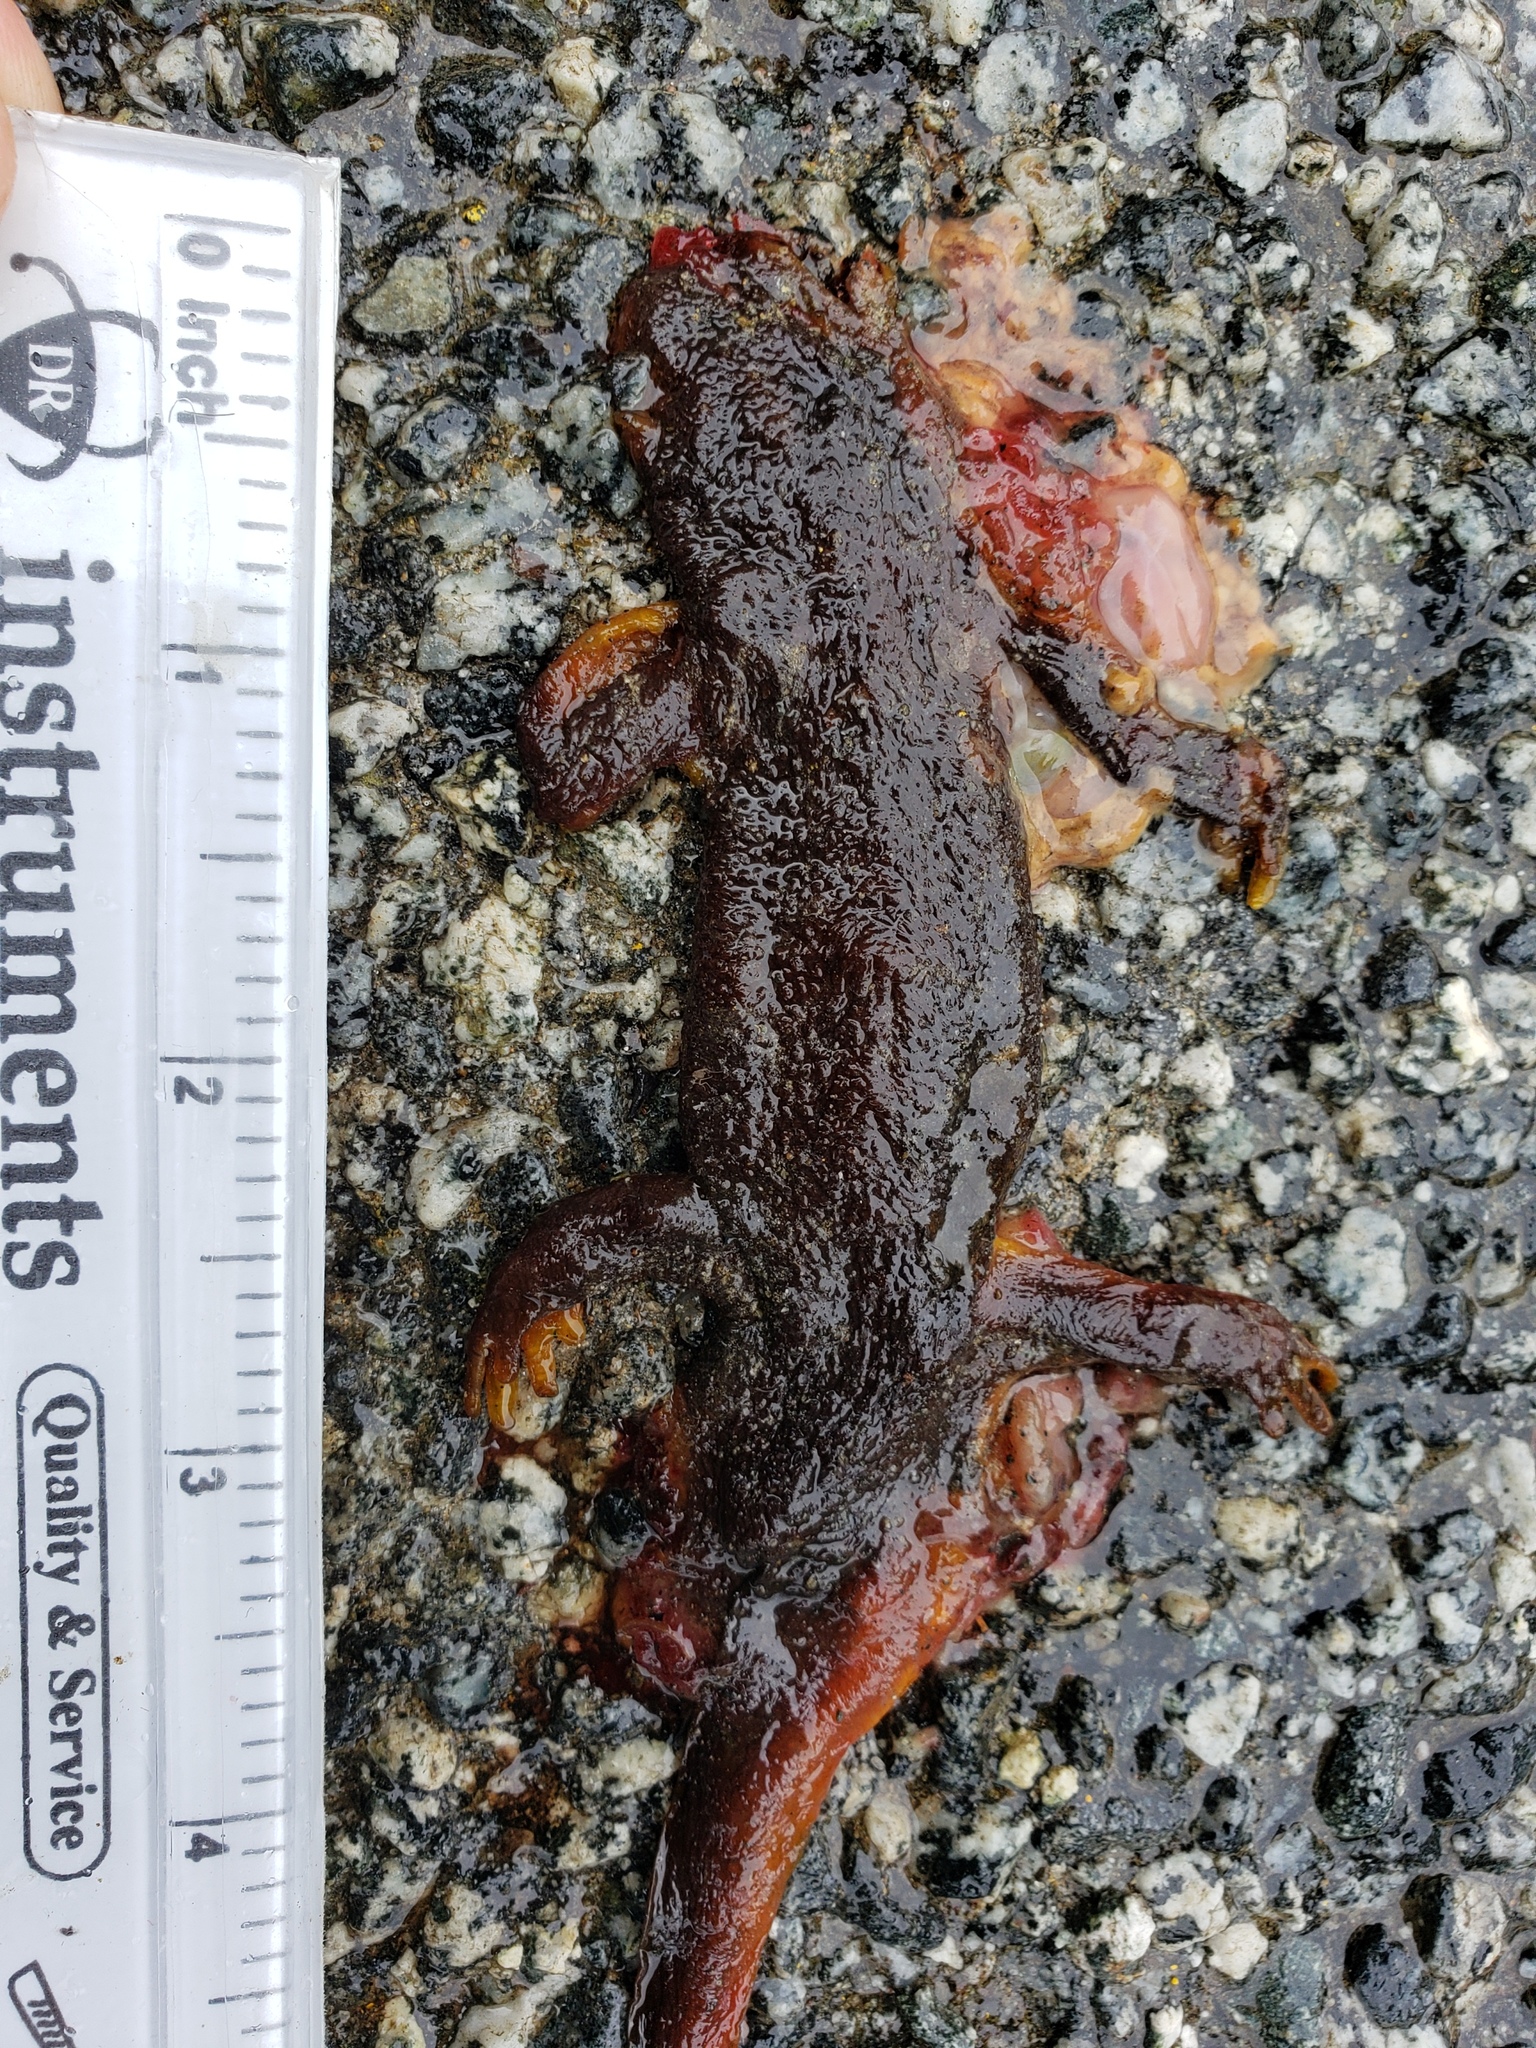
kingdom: Animalia
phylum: Chordata
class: Amphibia
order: Caudata
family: Salamandridae
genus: Taricha
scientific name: Taricha
